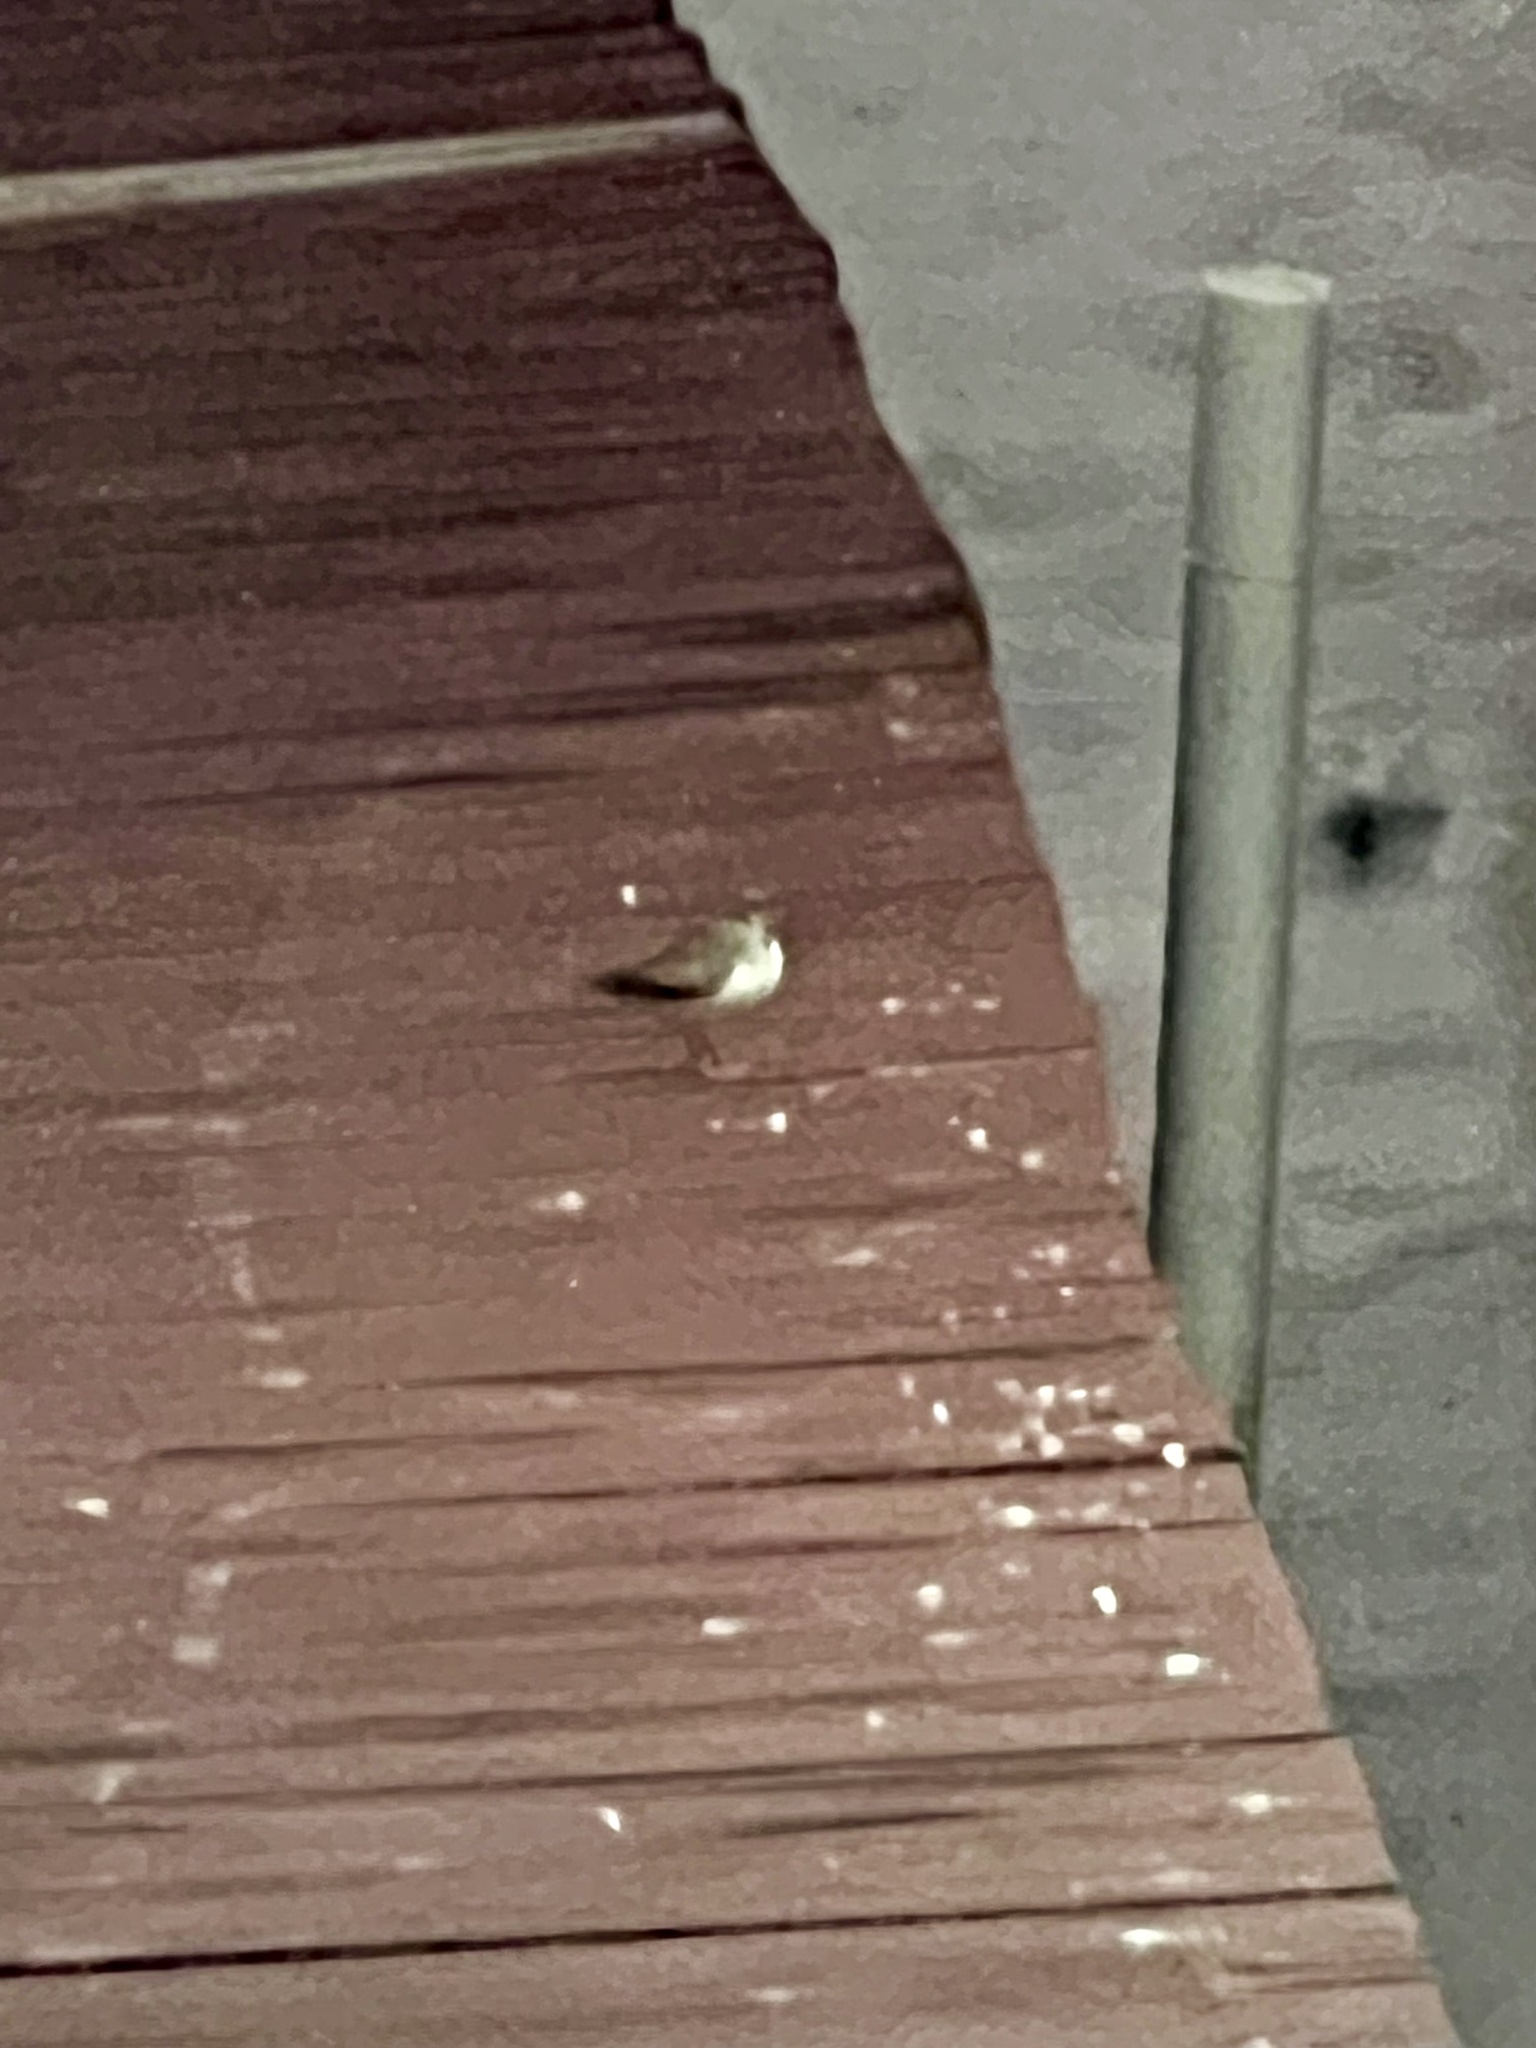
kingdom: Animalia
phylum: Chordata
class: Aves
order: Charadriiformes
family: Scolopacidae
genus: Actitis
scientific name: Actitis macularius
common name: Spotted sandpiper
